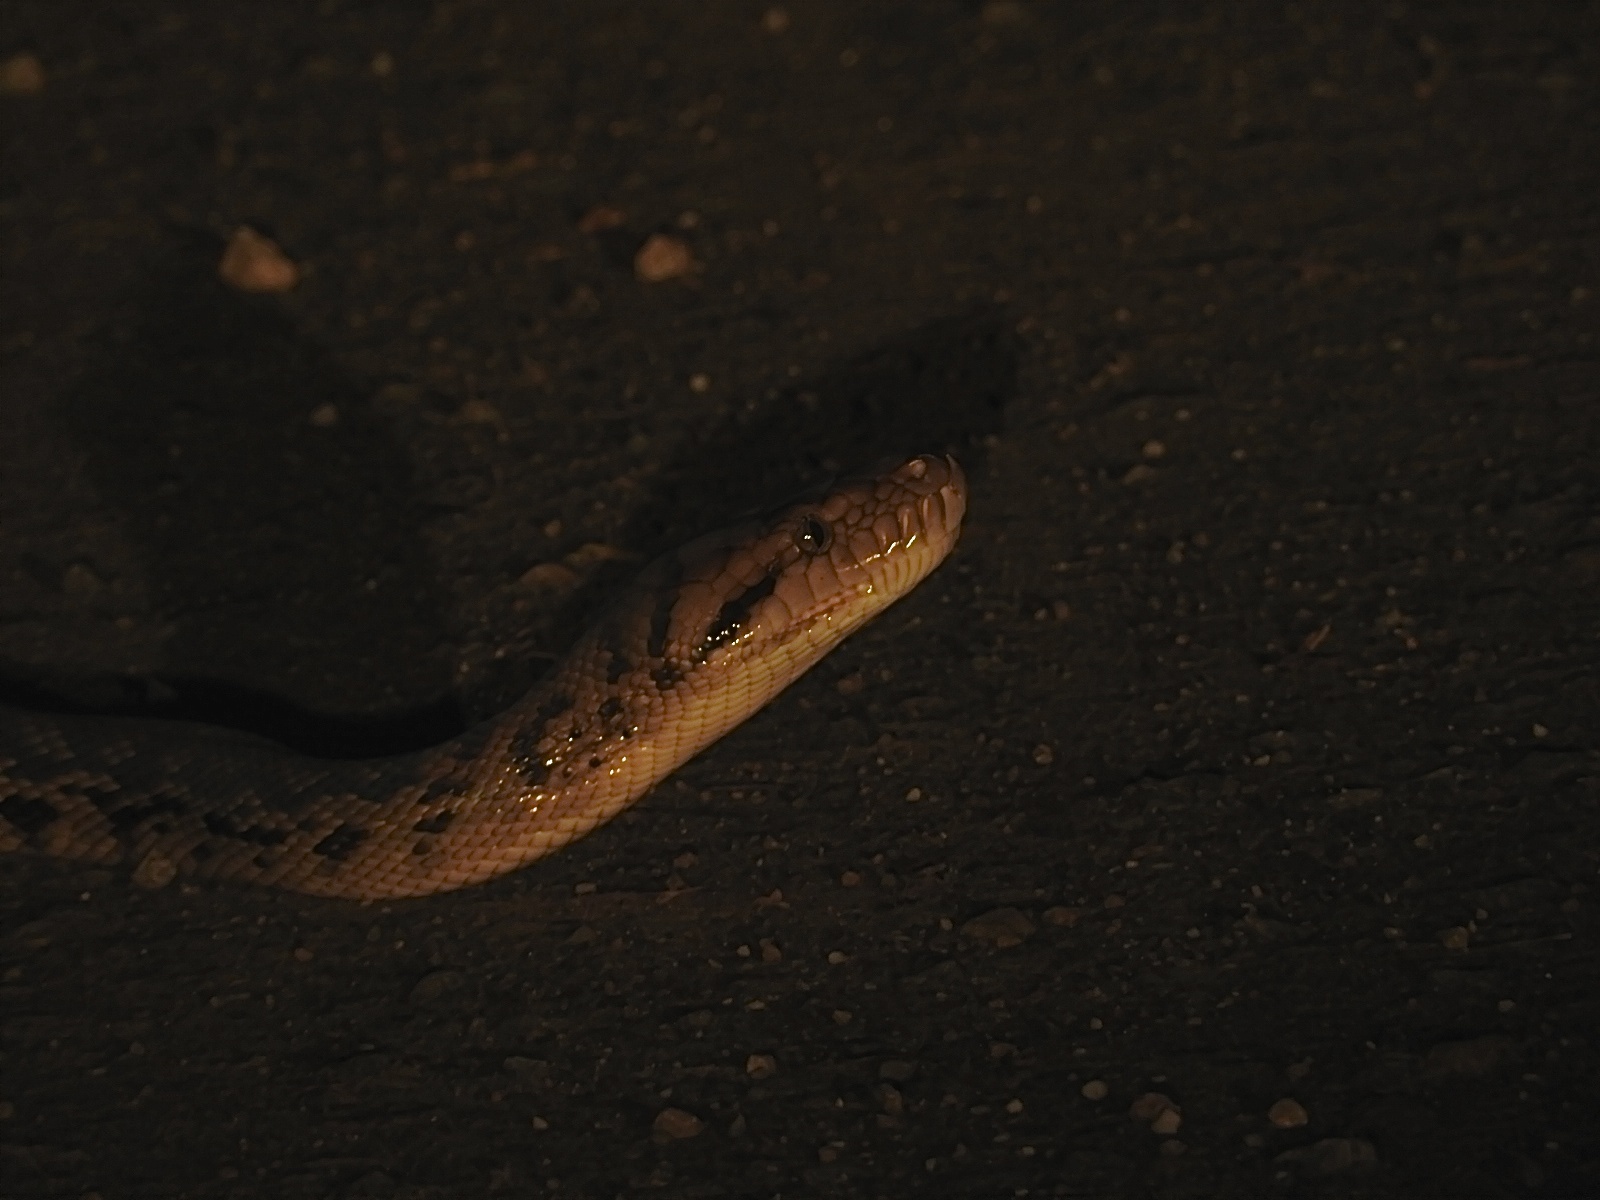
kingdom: Animalia
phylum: Chordata
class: Squamata
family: Pythonidae
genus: Simalia
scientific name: Simalia kinghorni
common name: Scrub python
